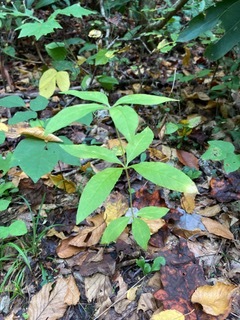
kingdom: Plantae
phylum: Tracheophyta
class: Magnoliopsida
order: Ericales
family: Primulaceae
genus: Lysimachia
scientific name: Lysimachia quadrifolia
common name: Whorled loosestrife
